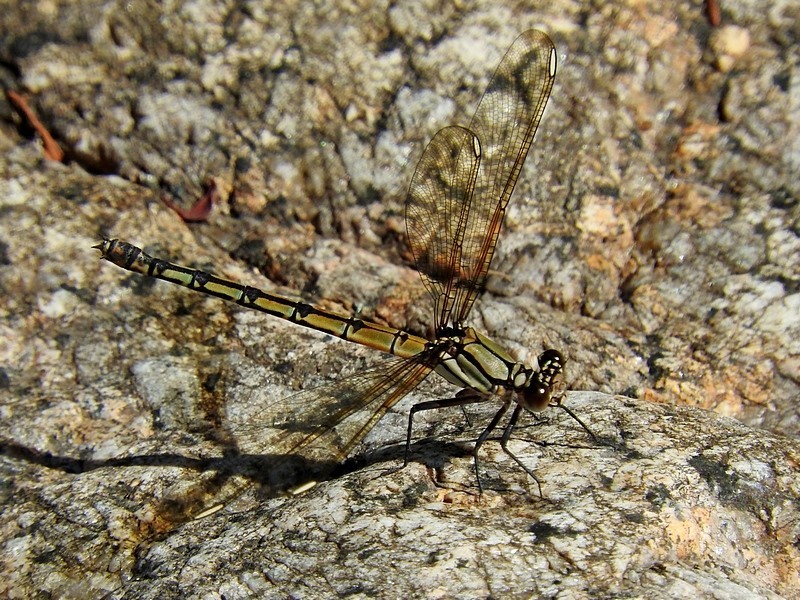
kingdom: Animalia
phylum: Arthropoda
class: Insecta
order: Odonata
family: Lestoideidae
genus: Diphlebia
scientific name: Diphlebia nymphoides
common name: Arrowhead rockmaster
